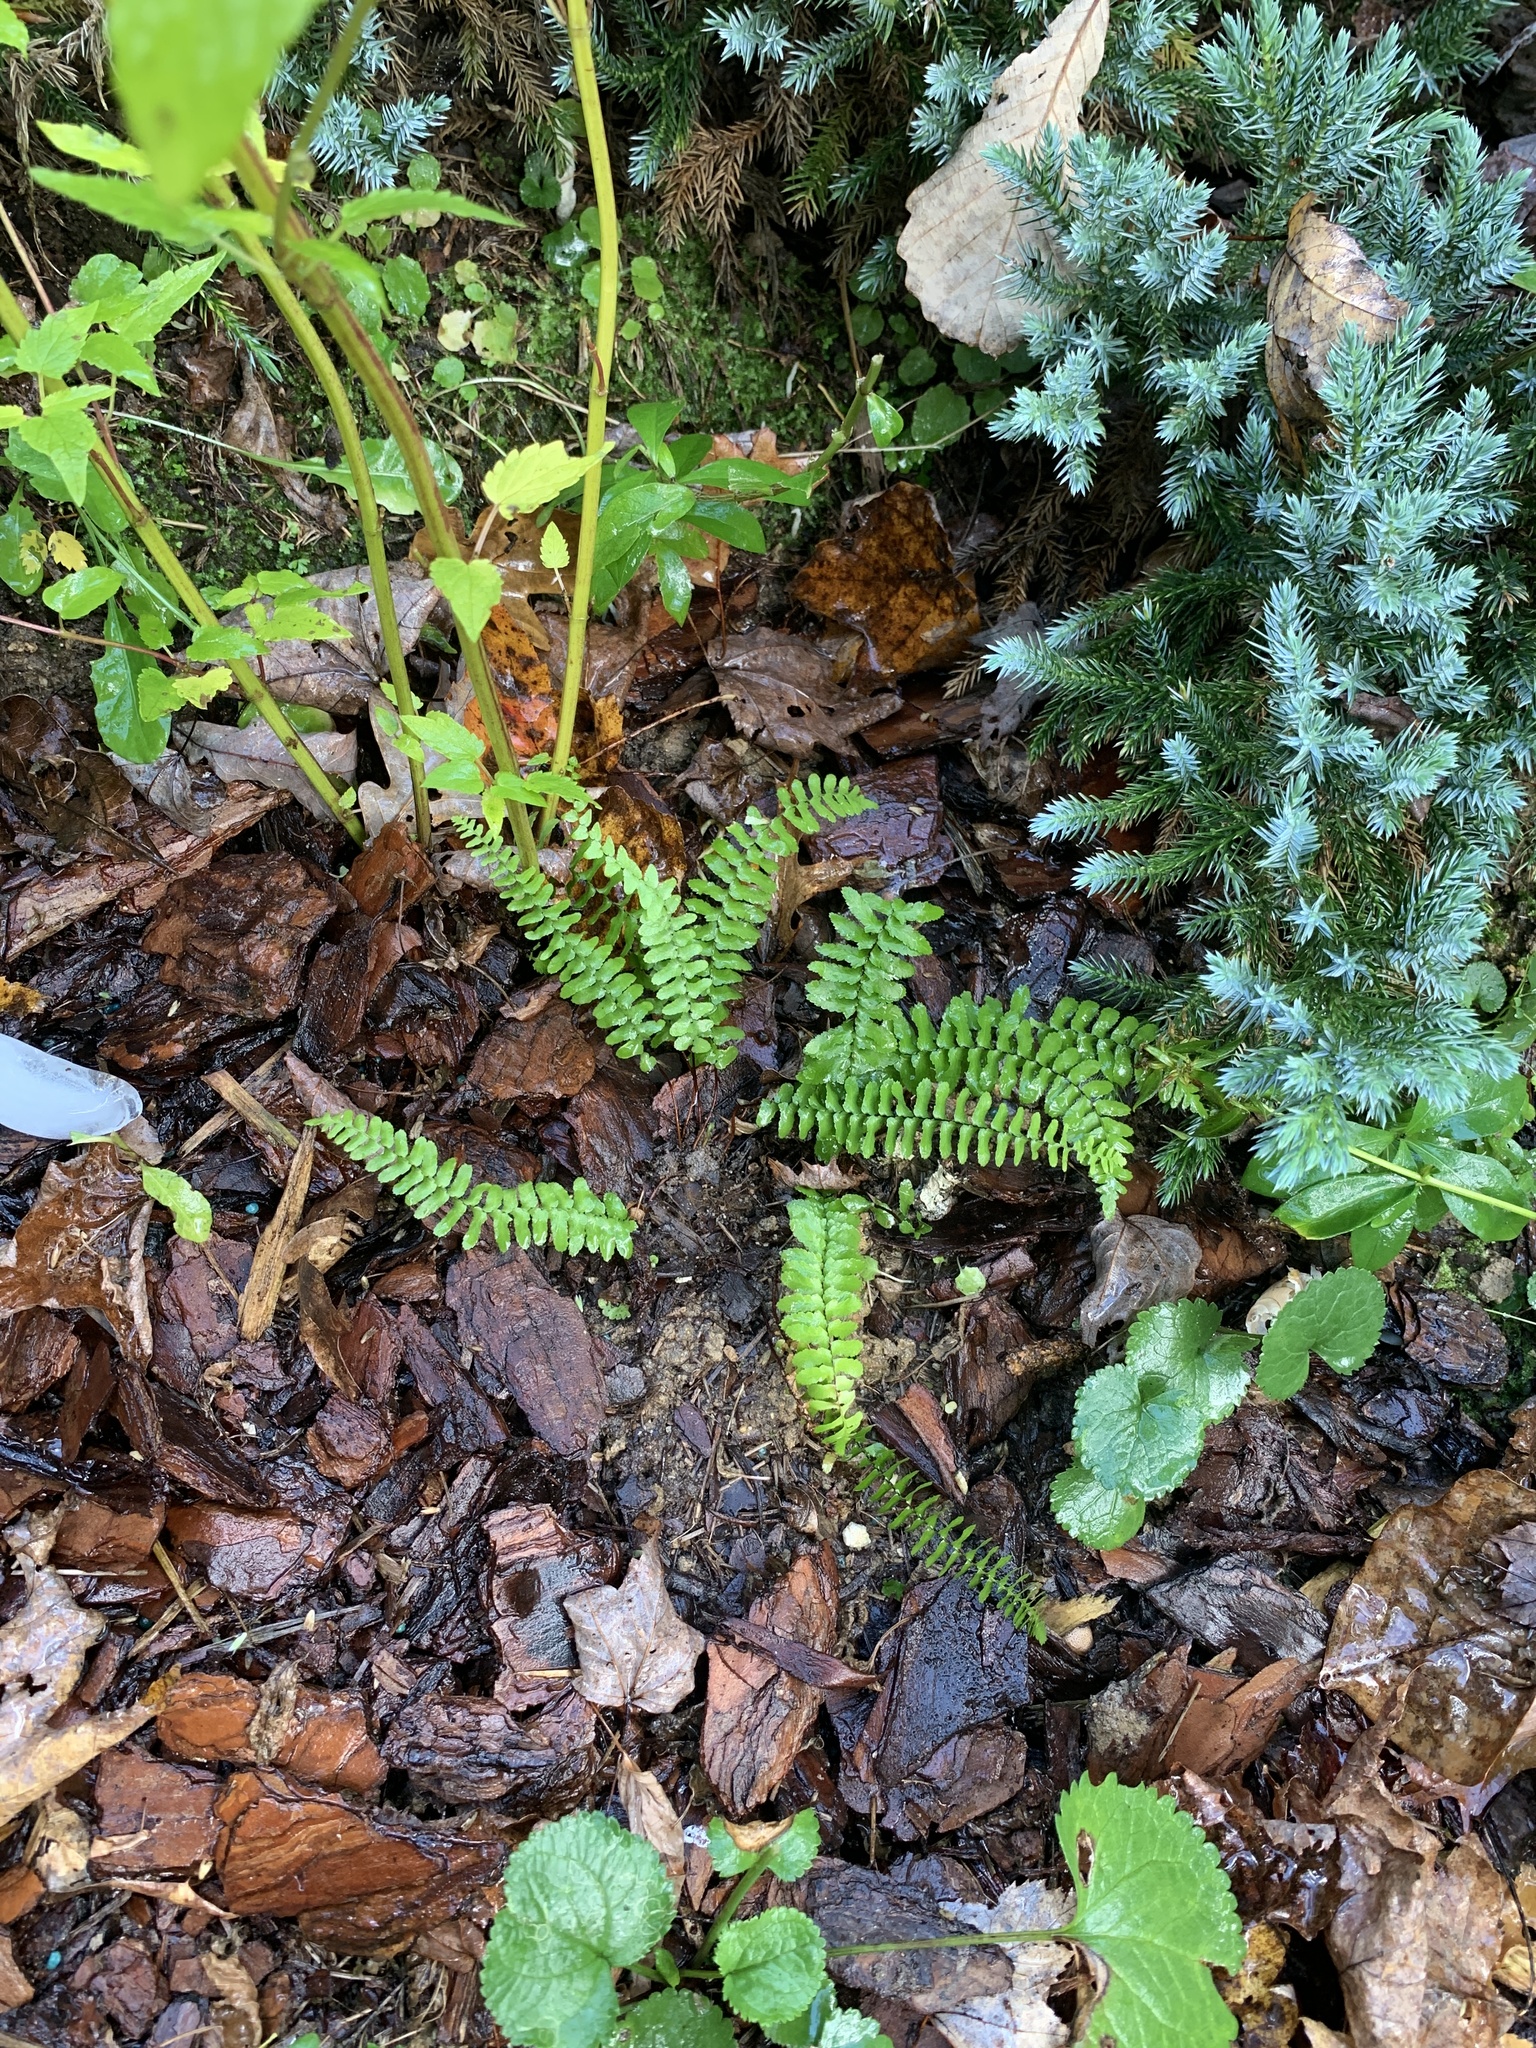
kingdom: Plantae
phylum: Tracheophyta
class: Polypodiopsida
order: Polypodiales
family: Aspleniaceae
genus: Asplenium
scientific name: Asplenium platyneuron
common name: Ebony spleenwort
